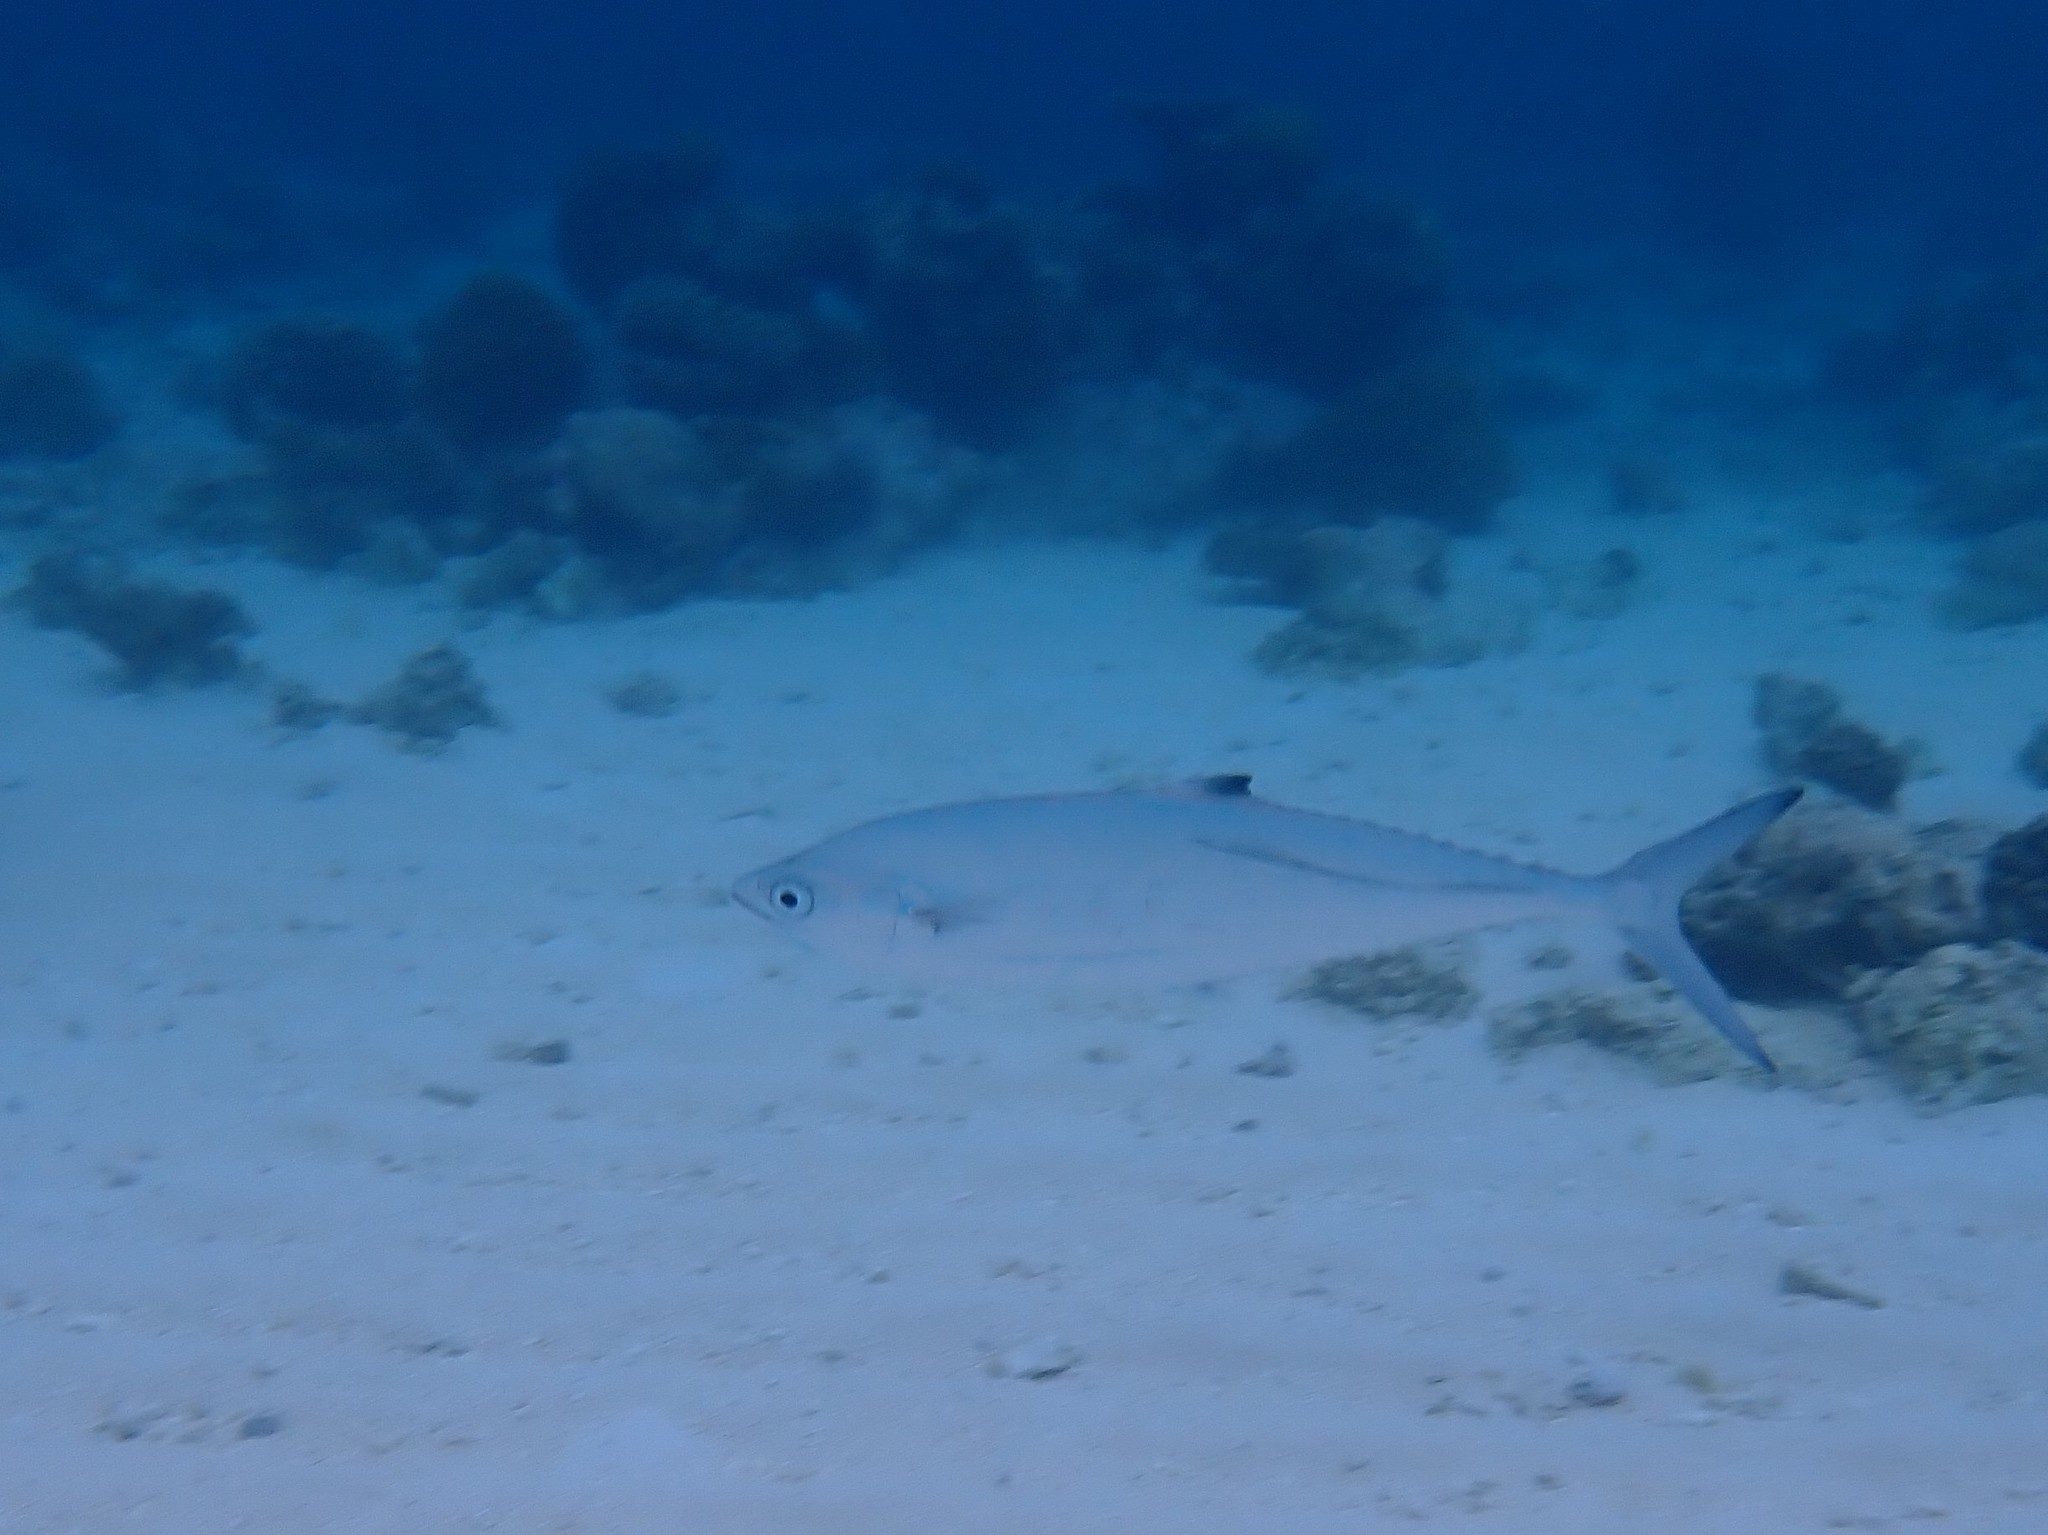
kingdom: Animalia
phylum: Chordata
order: Perciformes
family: Carangidae
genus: Scomberoides
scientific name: Scomberoides lysan
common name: Doublespotted queenfish
